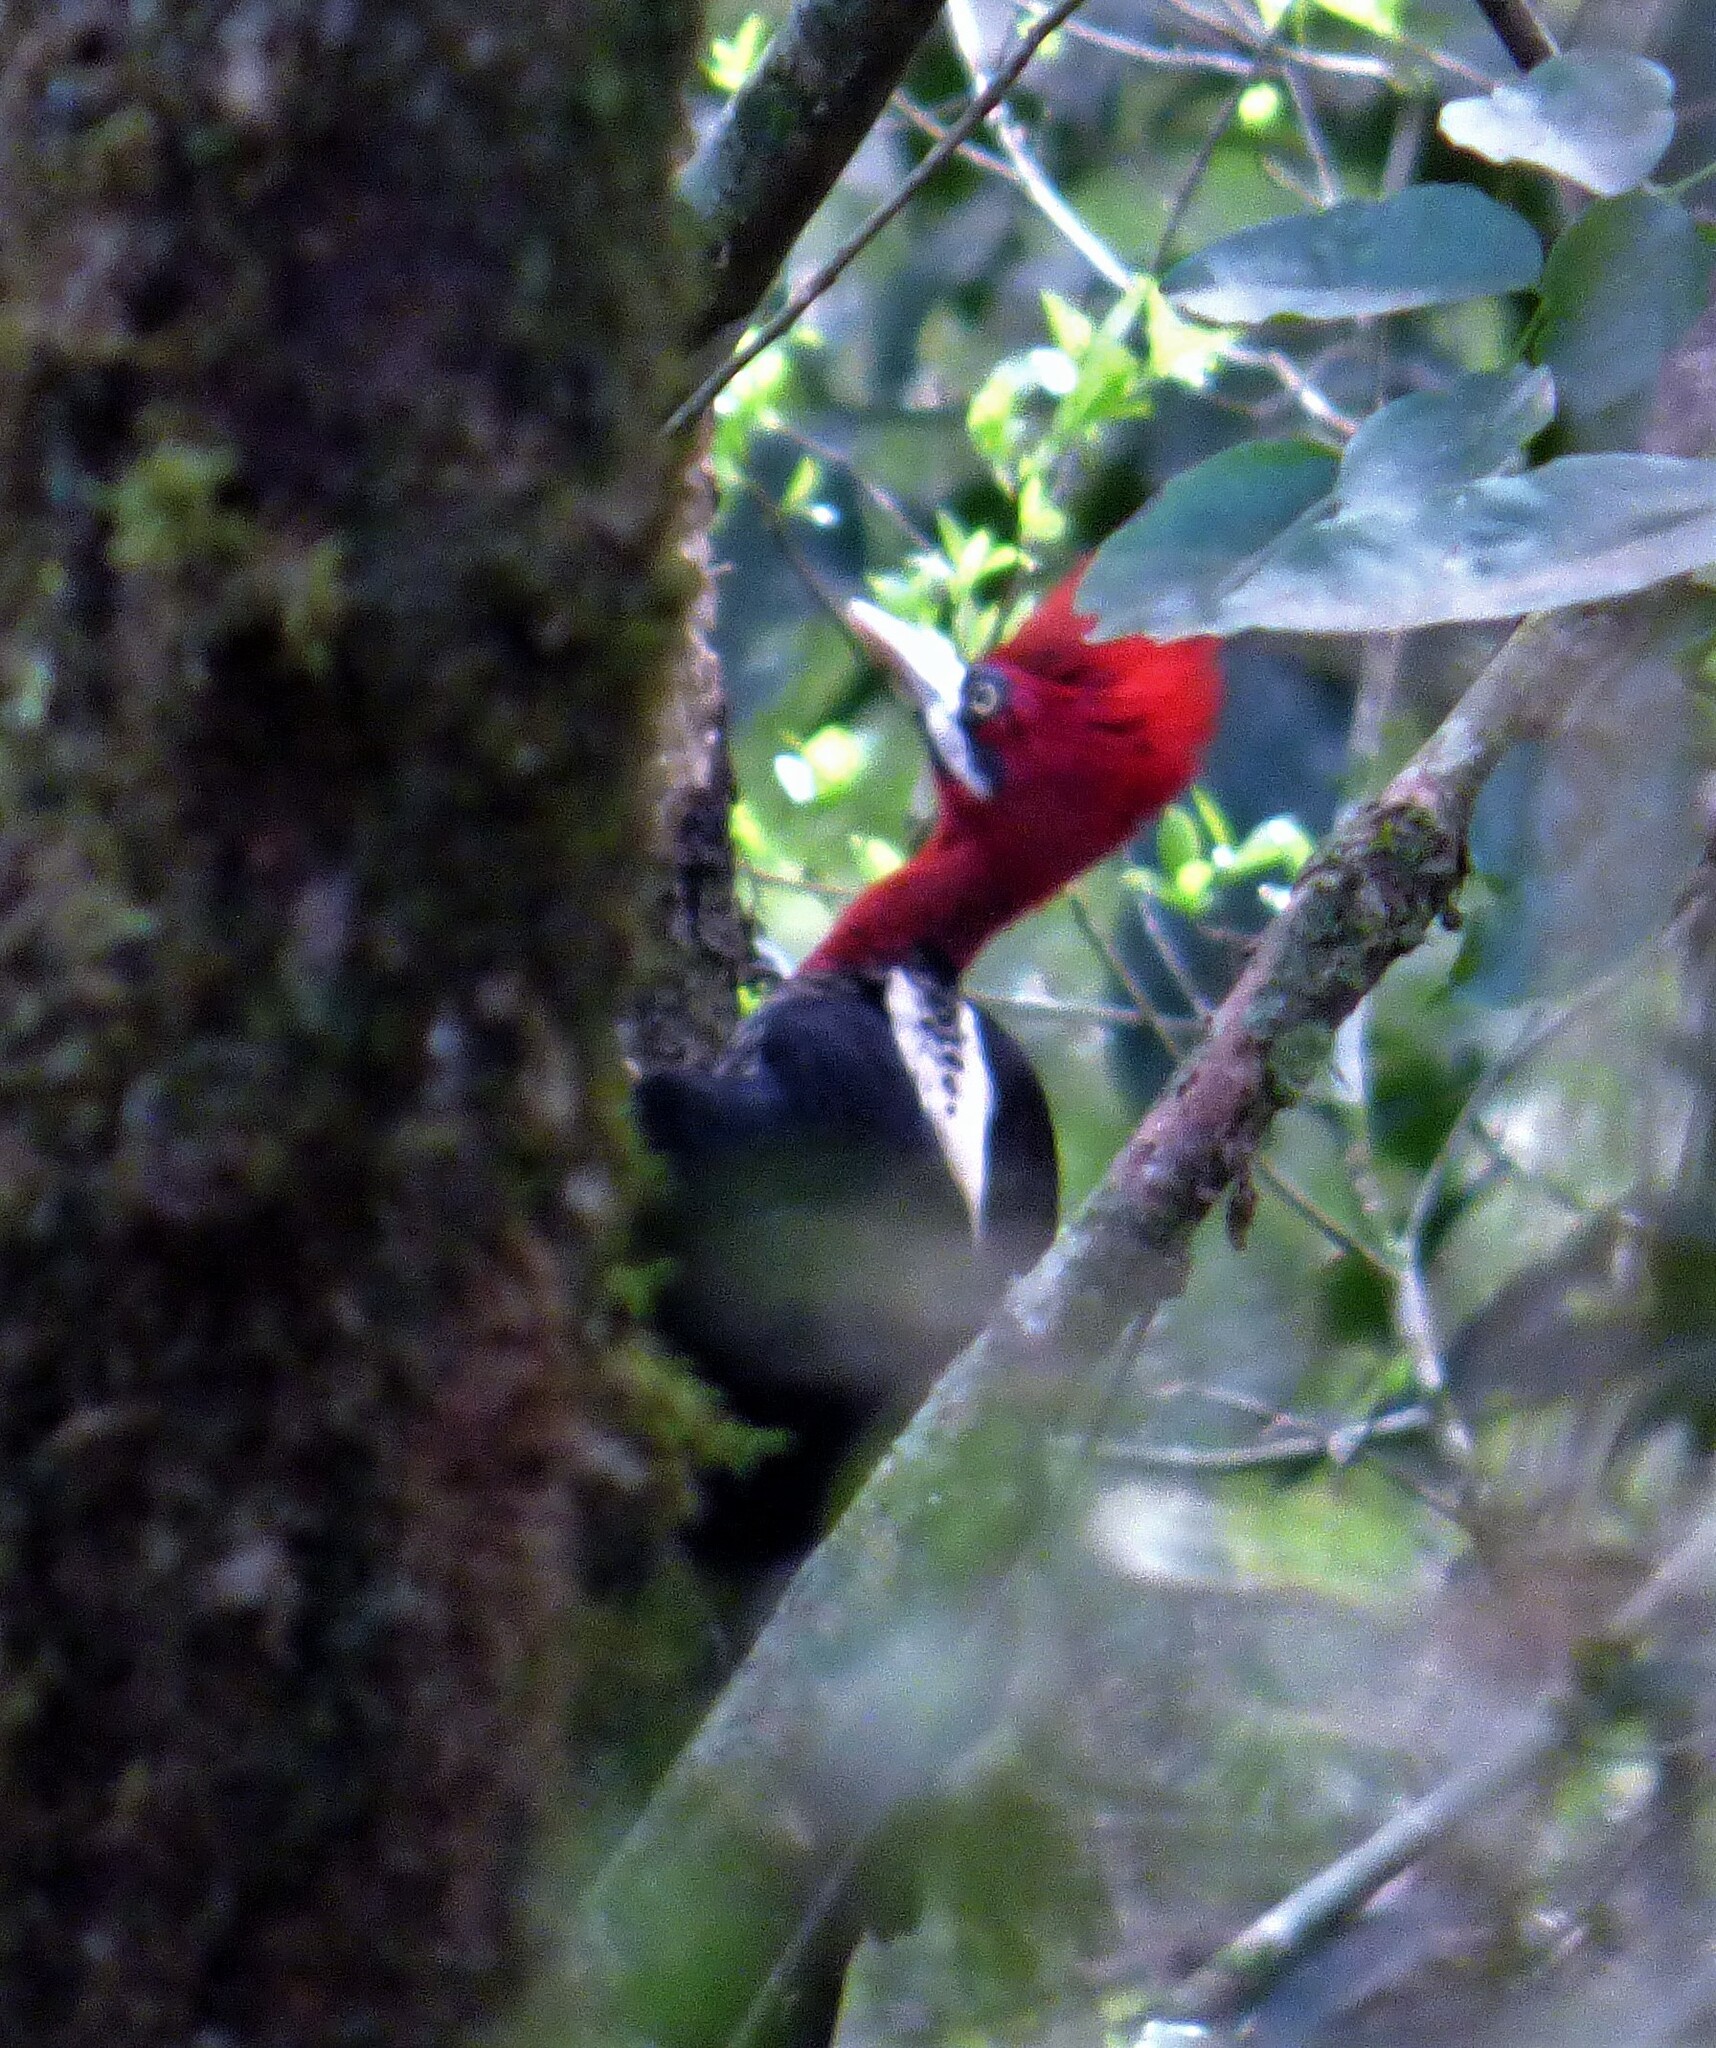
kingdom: Animalia
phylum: Chordata
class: Aves
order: Piciformes
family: Picidae
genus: Campephilus
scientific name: Campephilus robustus
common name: Robust woodpecker
